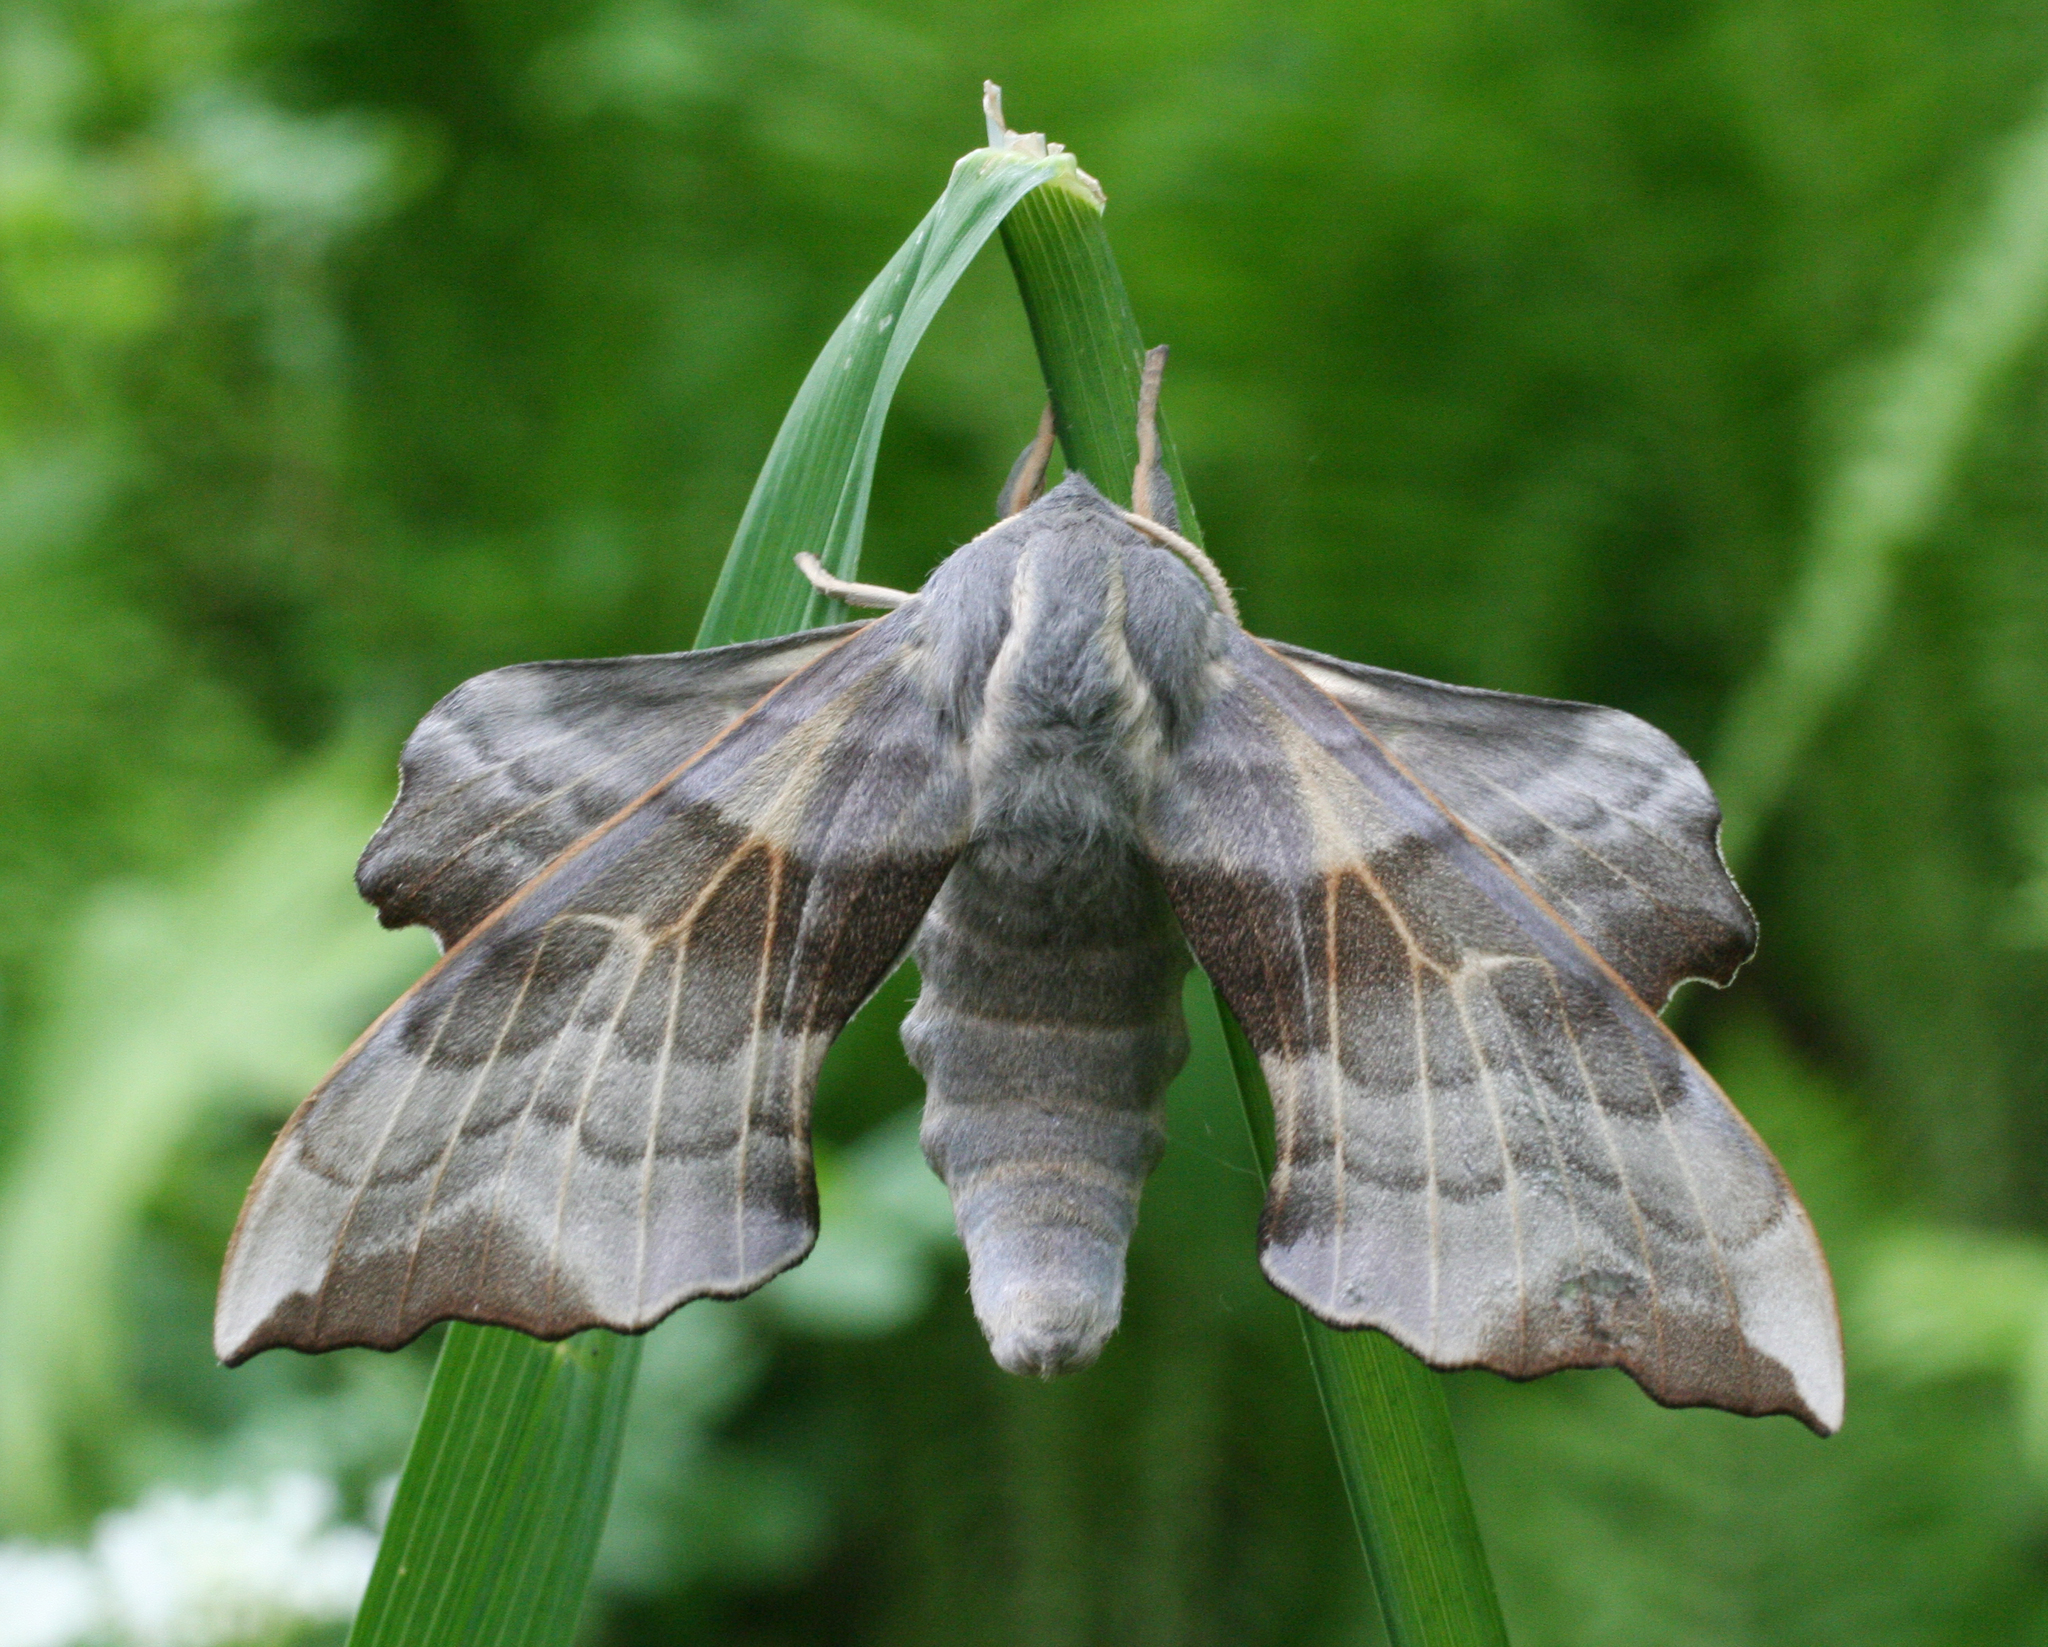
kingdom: Animalia
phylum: Arthropoda
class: Insecta
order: Lepidoptera
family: Sphingidae
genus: Laothoe
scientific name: Laothoe amurensis
